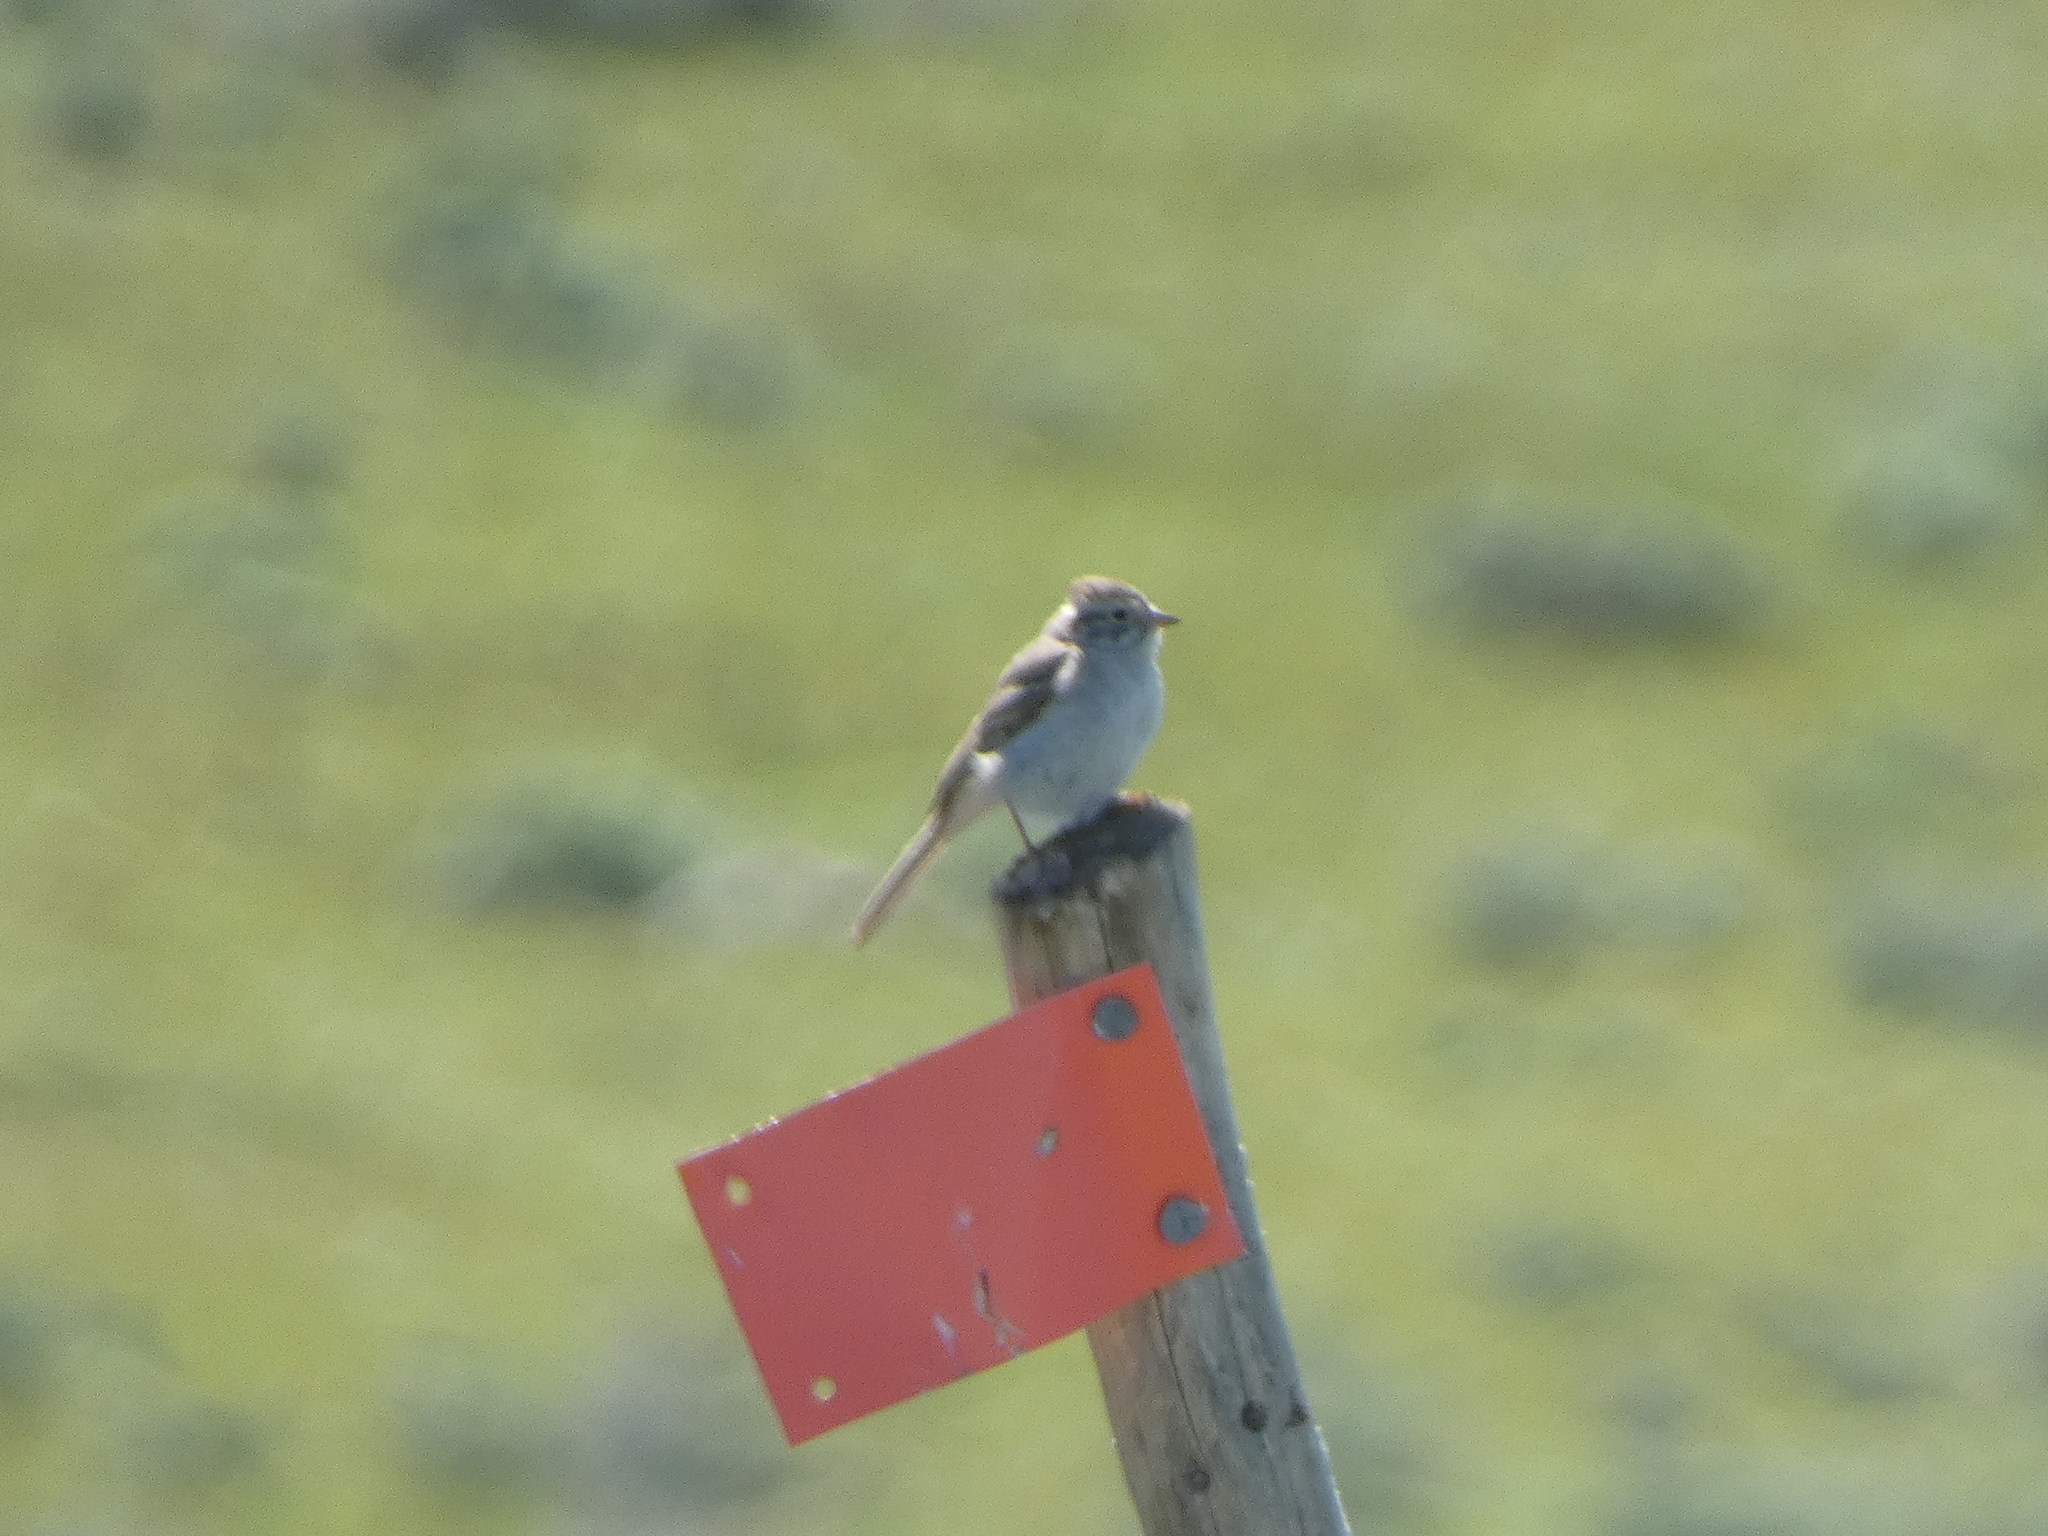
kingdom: Animalia
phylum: Chordata
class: Aves
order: Passeriformes
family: Passerellidae
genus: Spizella
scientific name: Spizella breweri
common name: Brewer's sparrow
